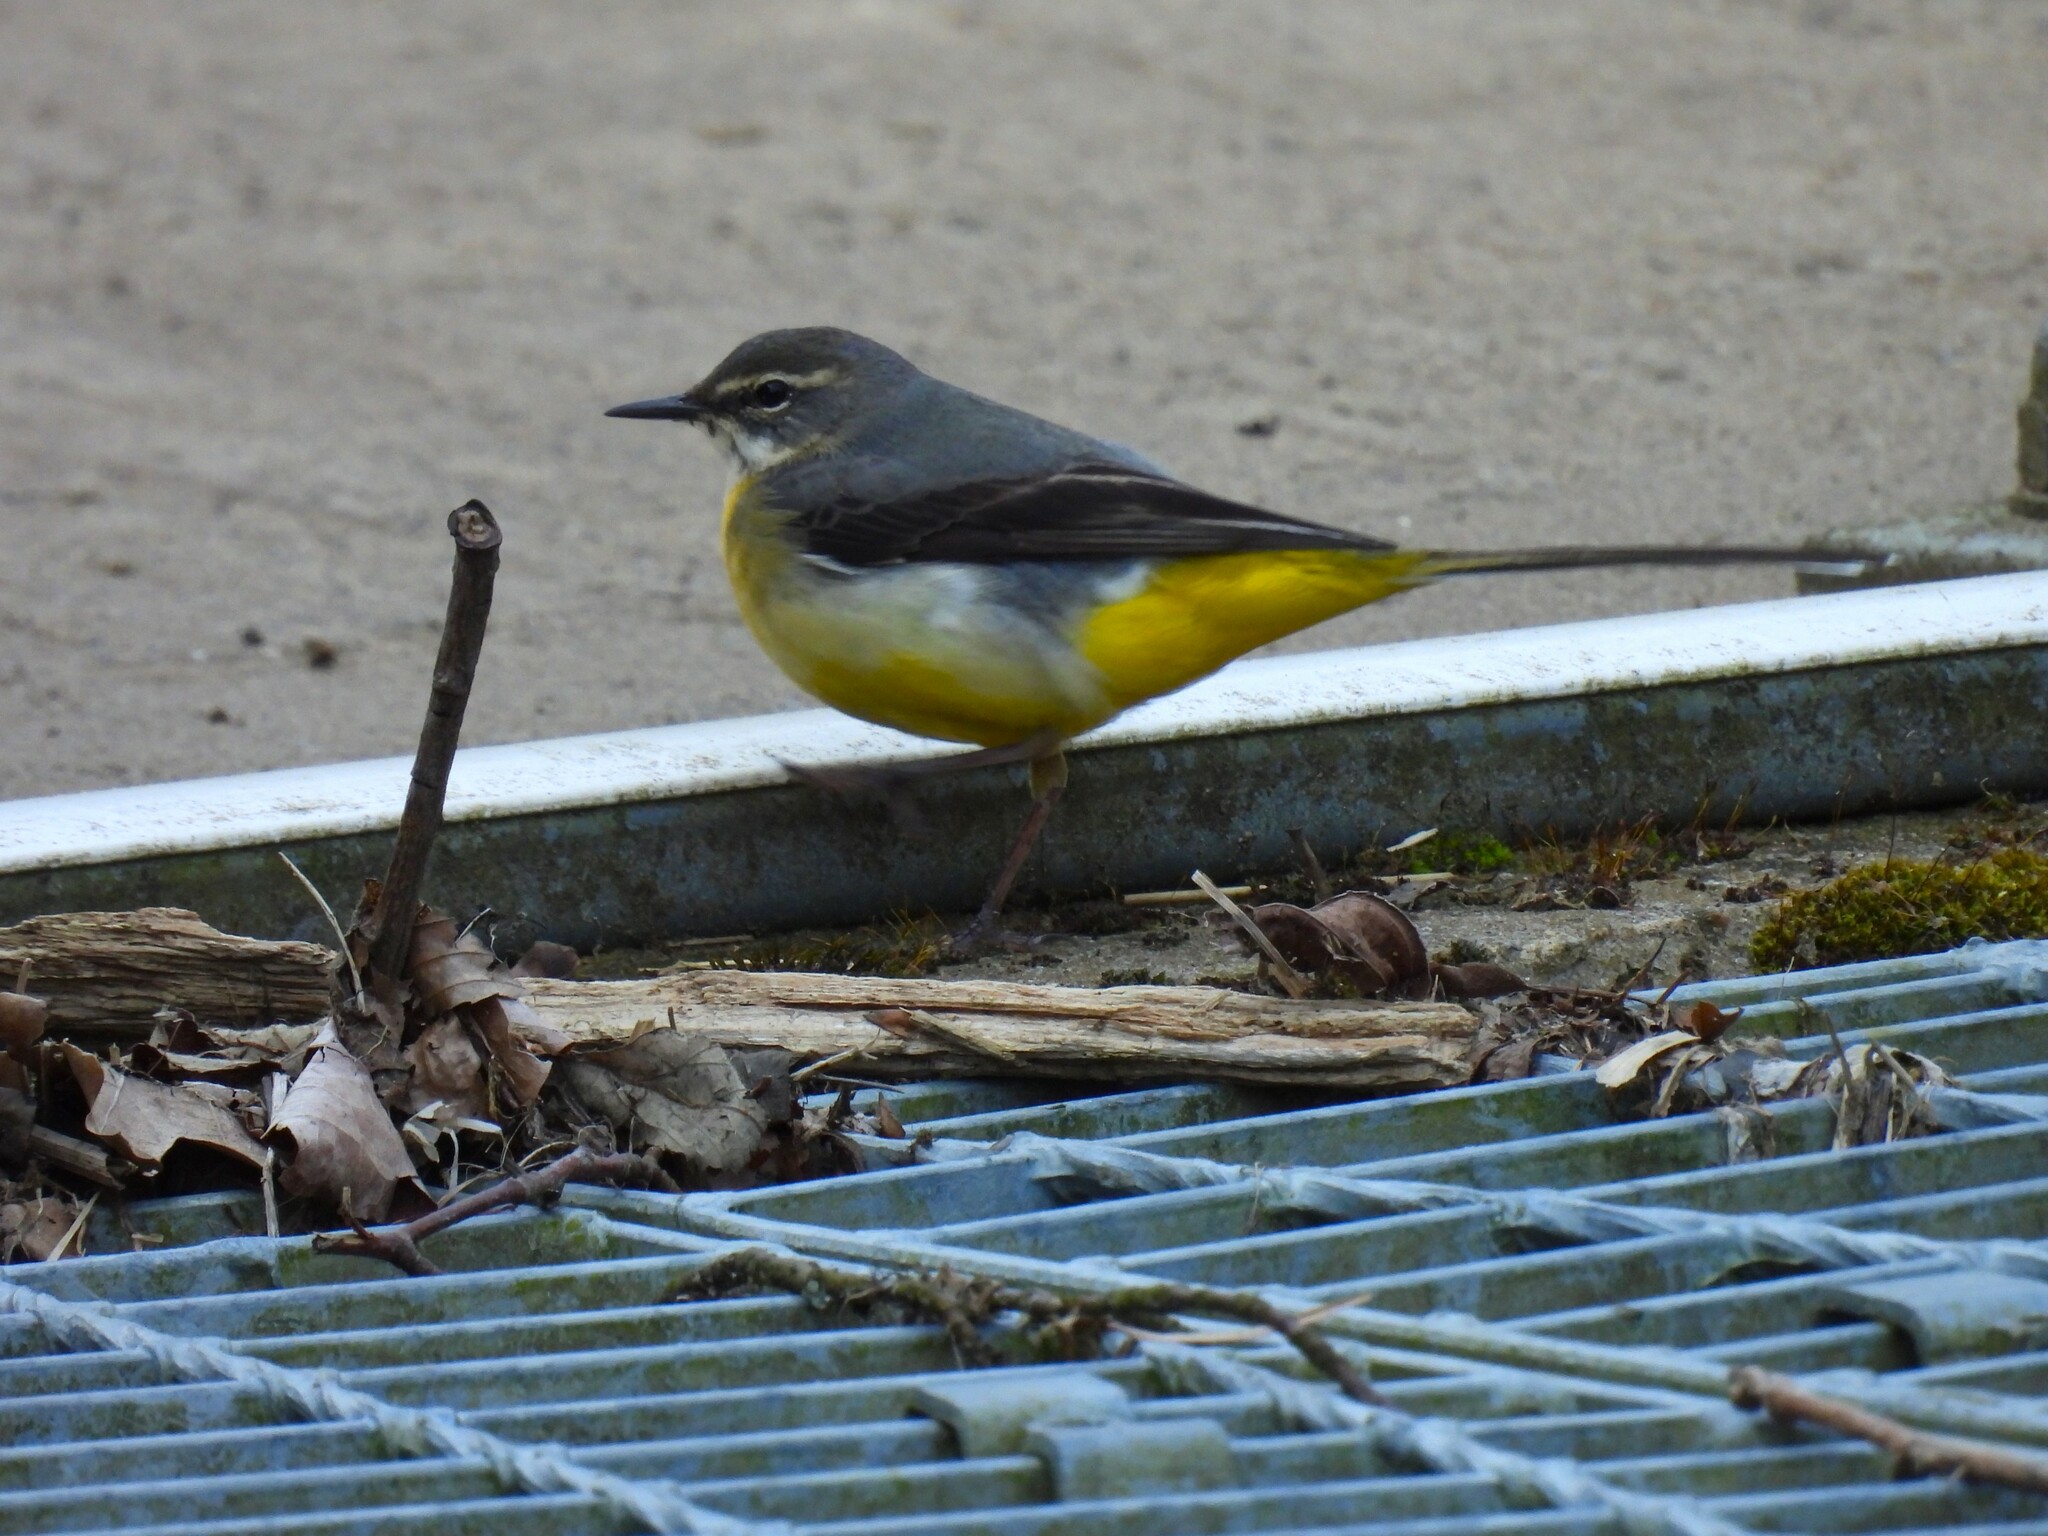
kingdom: Animalia
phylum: Chordata
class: Aves
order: Passeriformes
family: Motacillidae
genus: Motacilla
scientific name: Motacilla cinerea
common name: Grey wagtail
